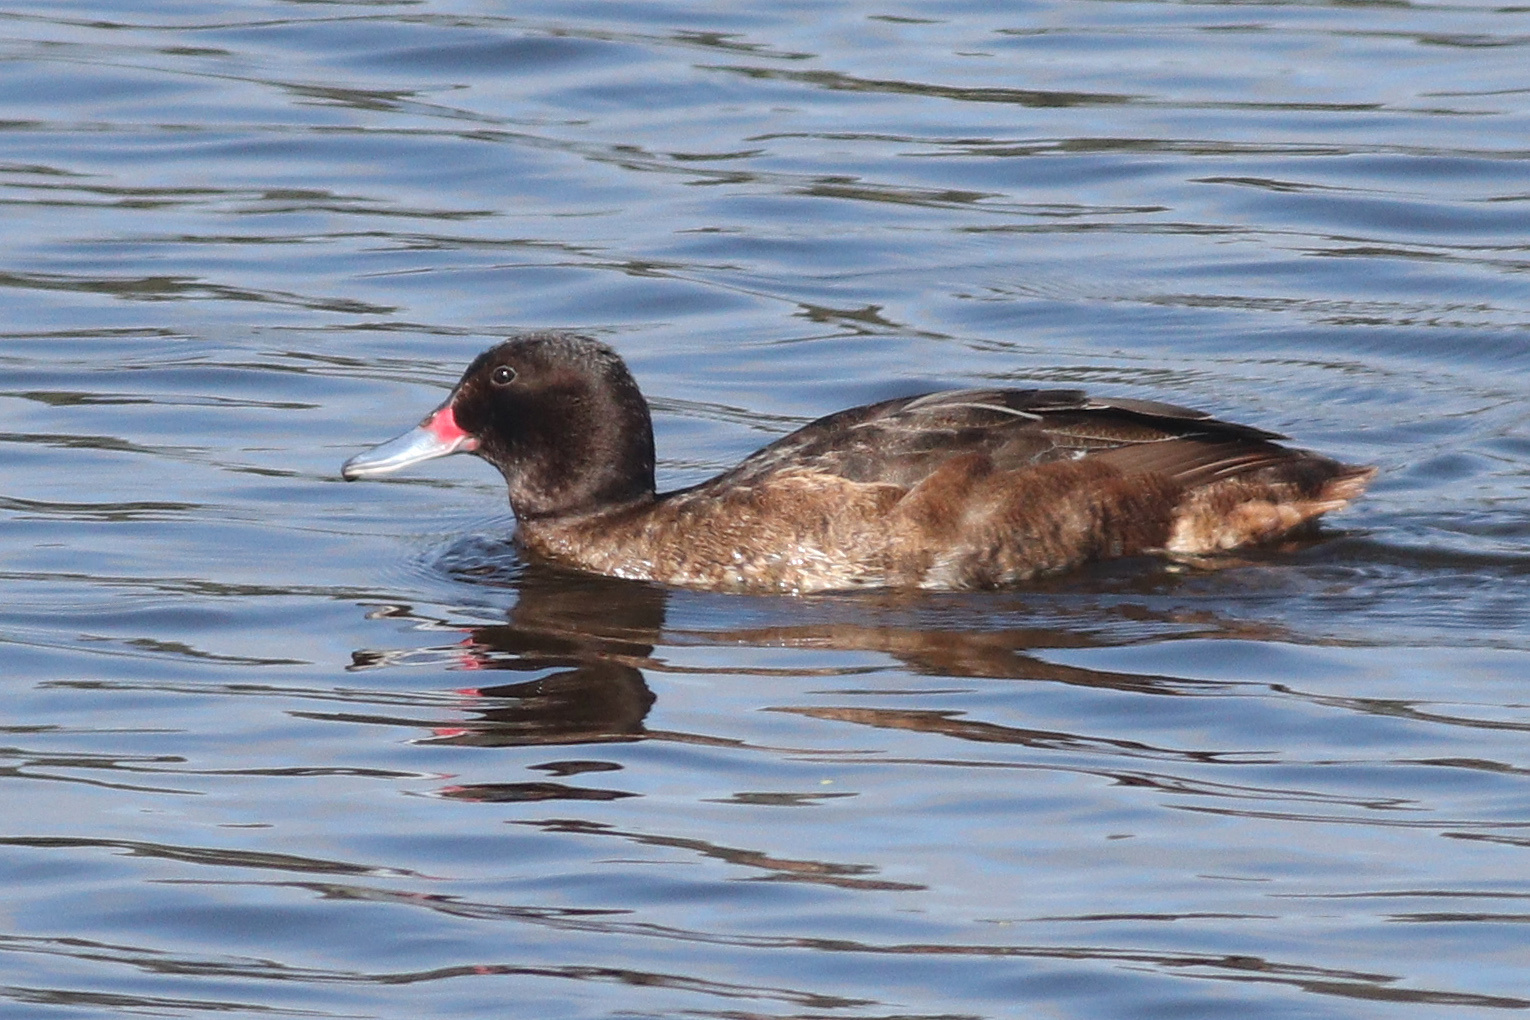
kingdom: Animalia
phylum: Chordata
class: Aves
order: Anseriformes
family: Anatidae
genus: Heteronetta
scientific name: Heteronetta atricapilla
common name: Black-headed duck
